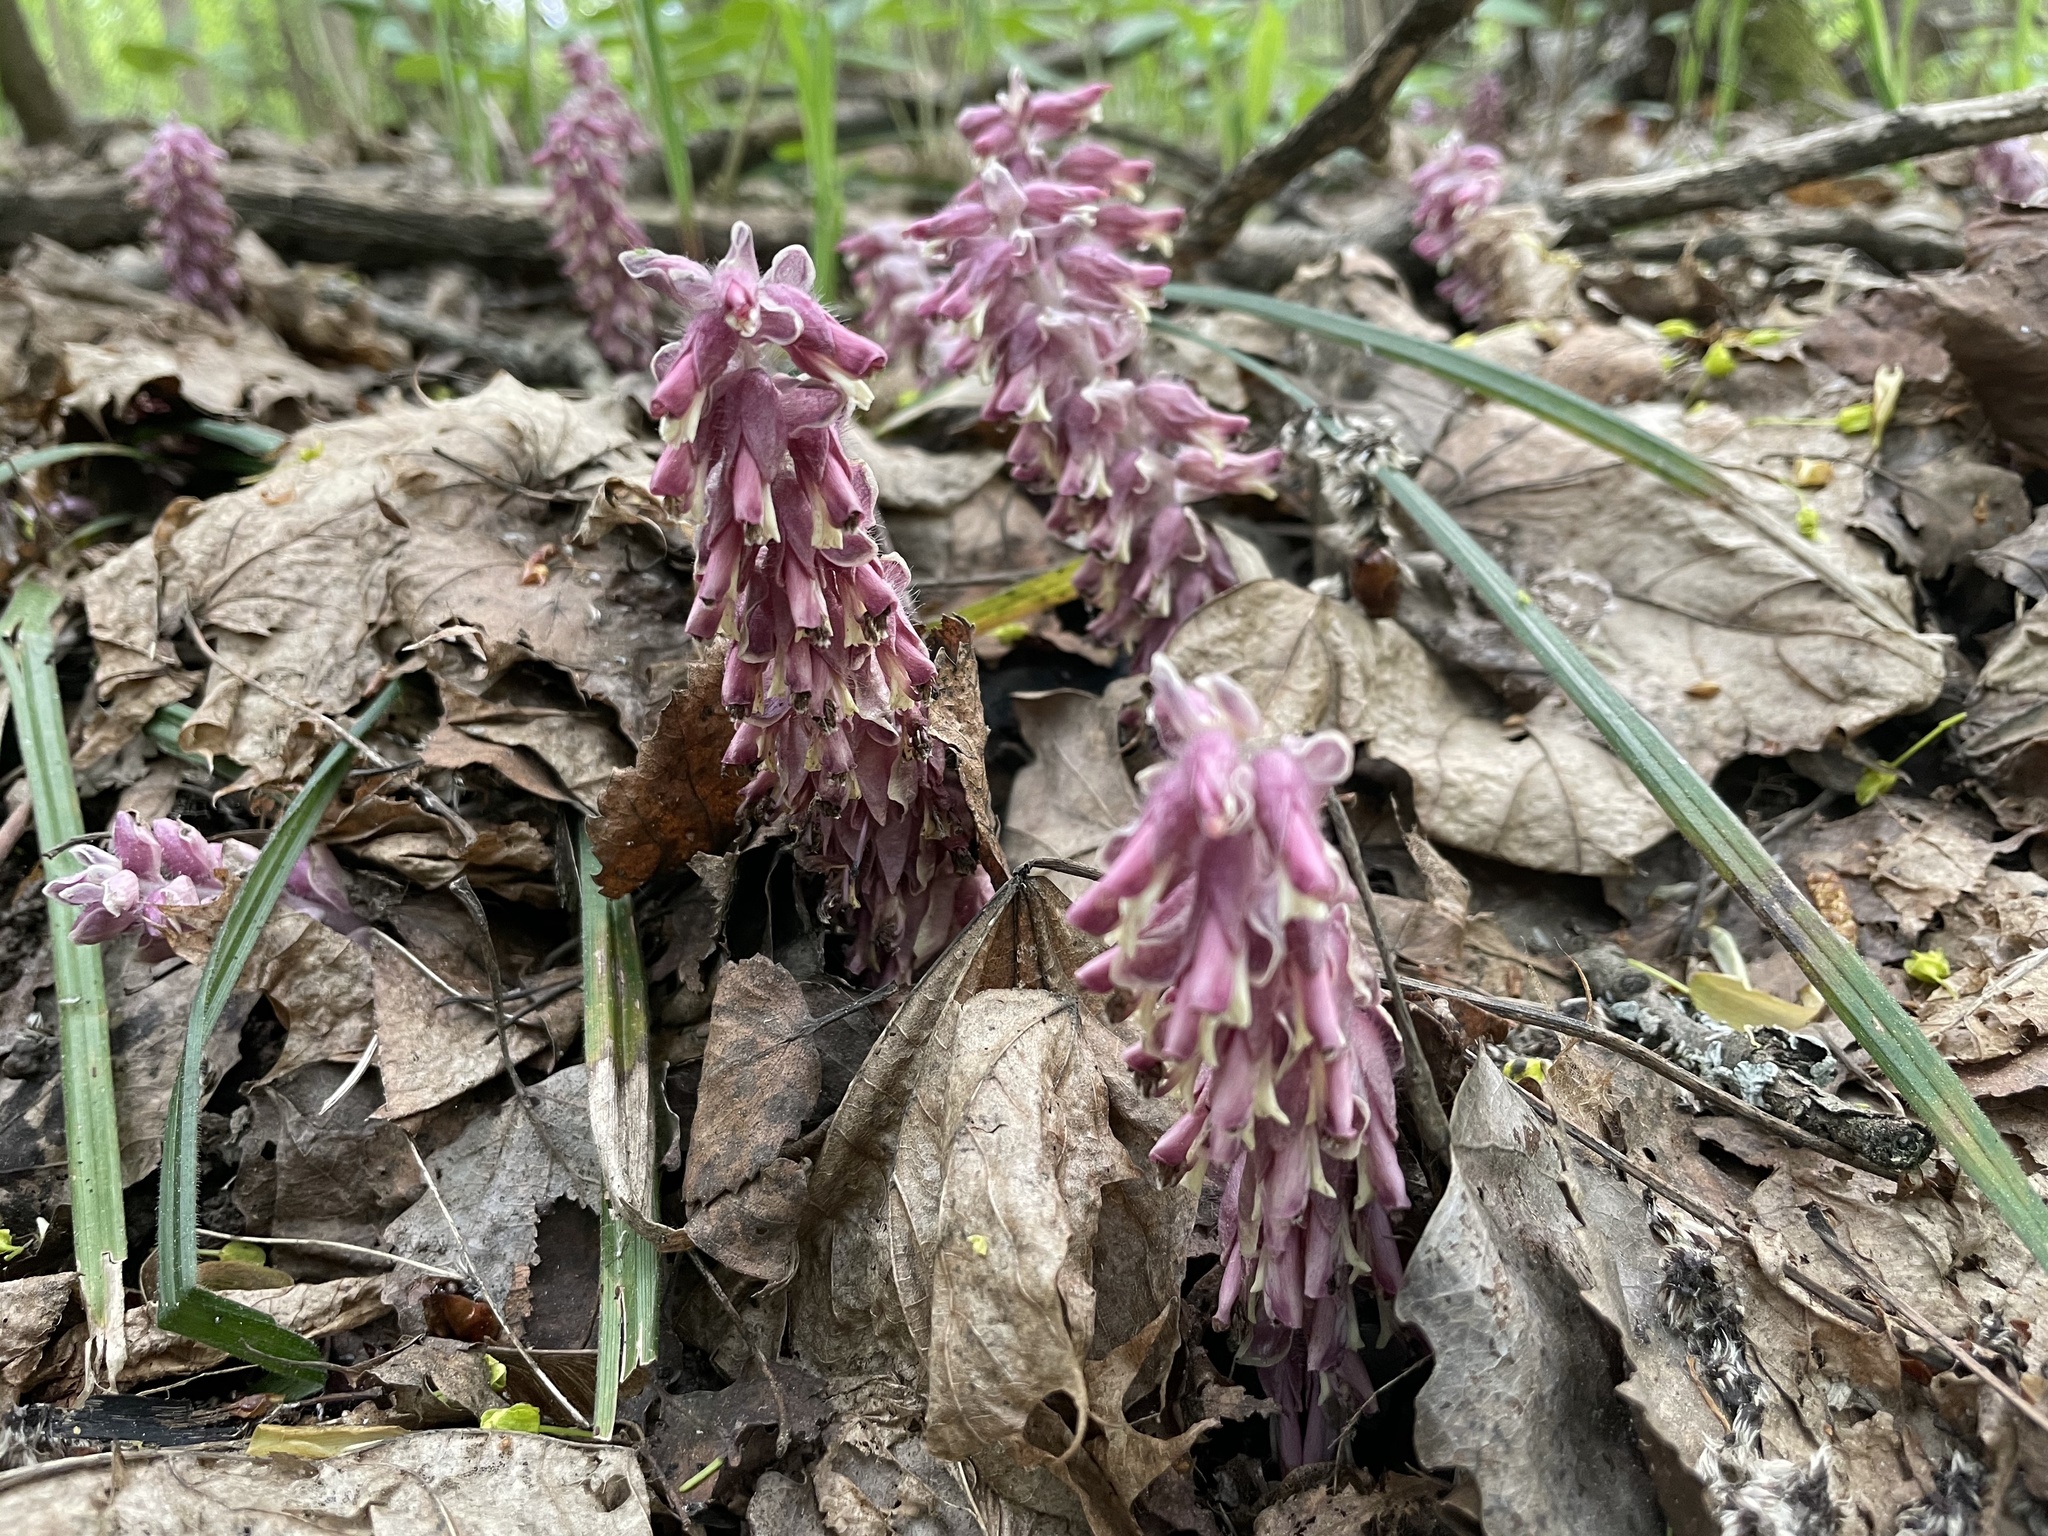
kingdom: Plantae
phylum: Tracheophyta
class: Magnoliopsida
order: Lamiales
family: Orobanchaceae
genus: Lathraea
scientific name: Lathraea squamaria
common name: Toothwort
